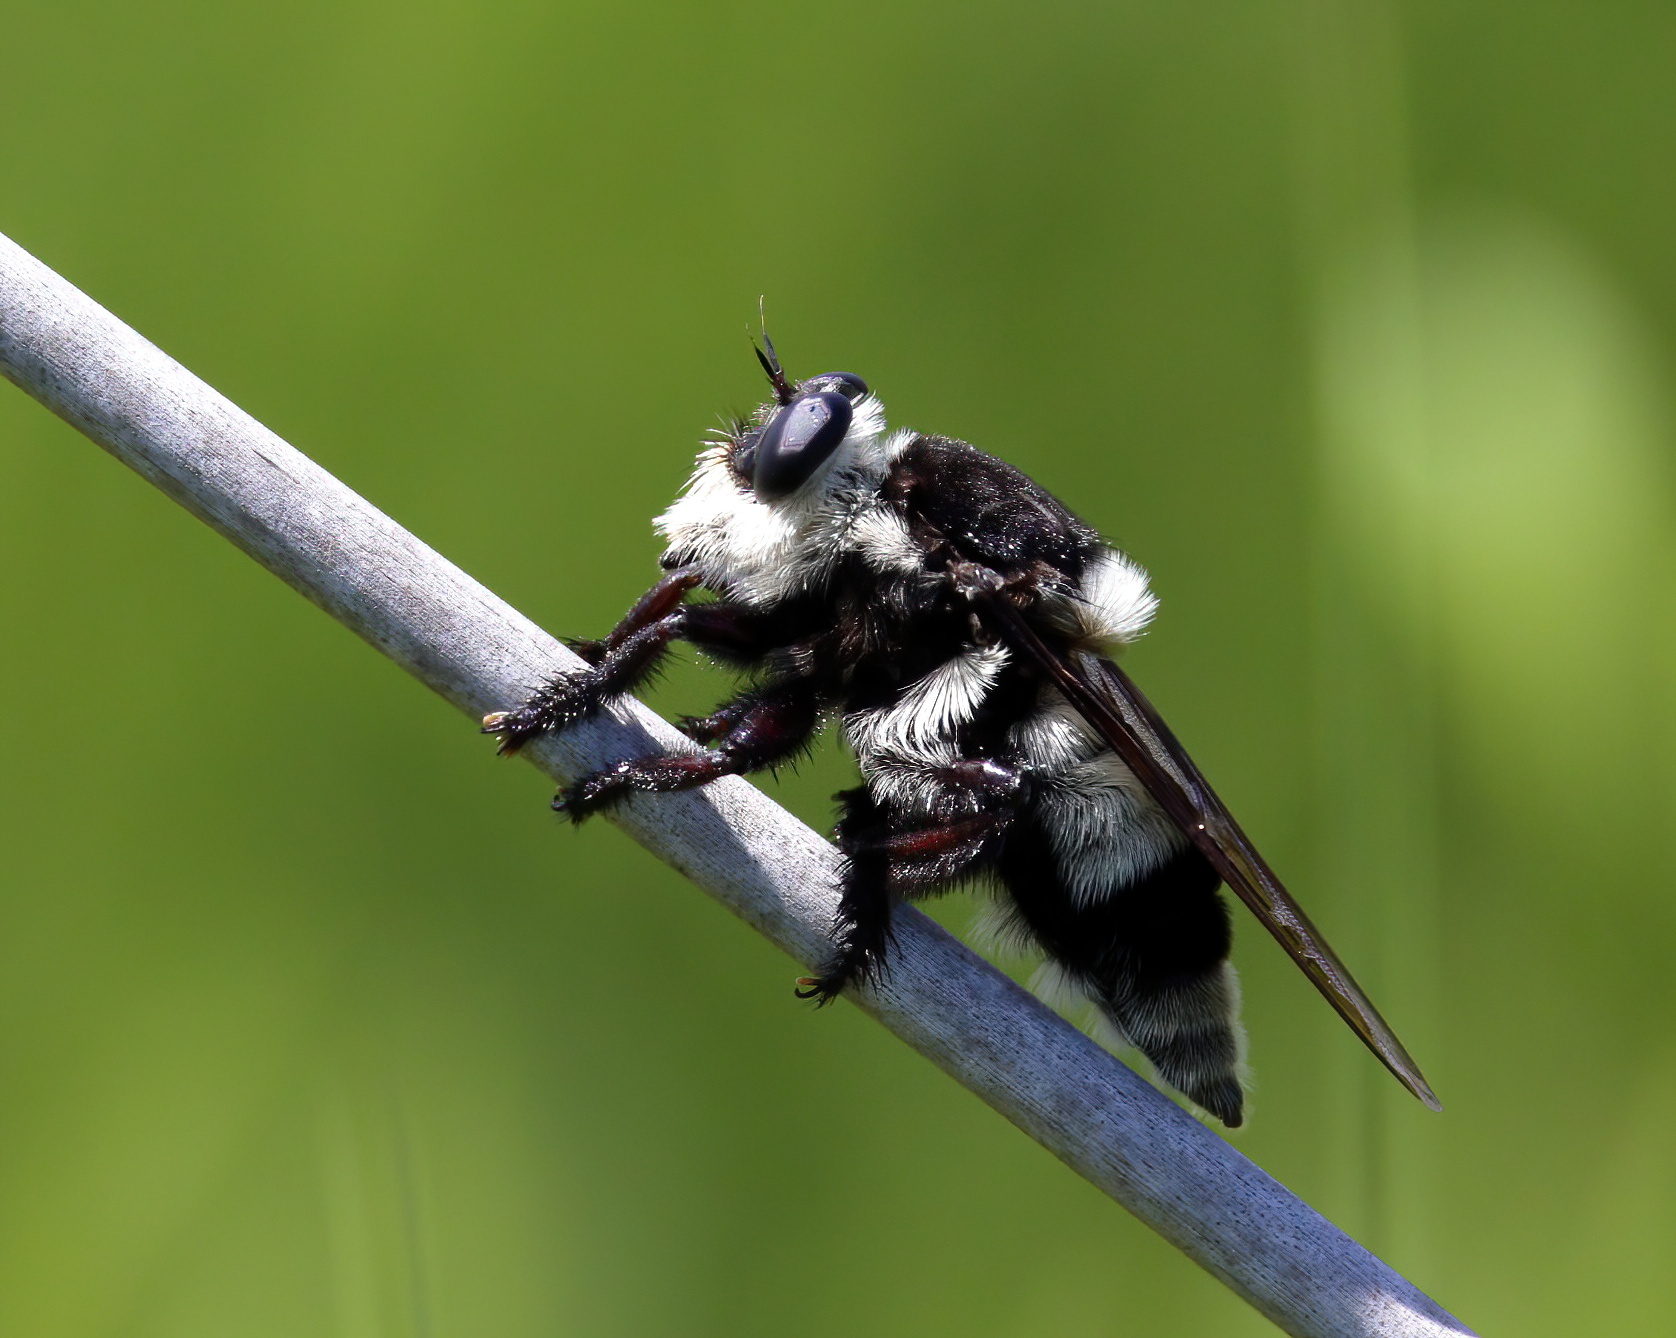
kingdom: Animalia
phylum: Arthropoda
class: Insecta
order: Diptera
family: Asilidae
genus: Mallophora
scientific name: Mallophora orcina
